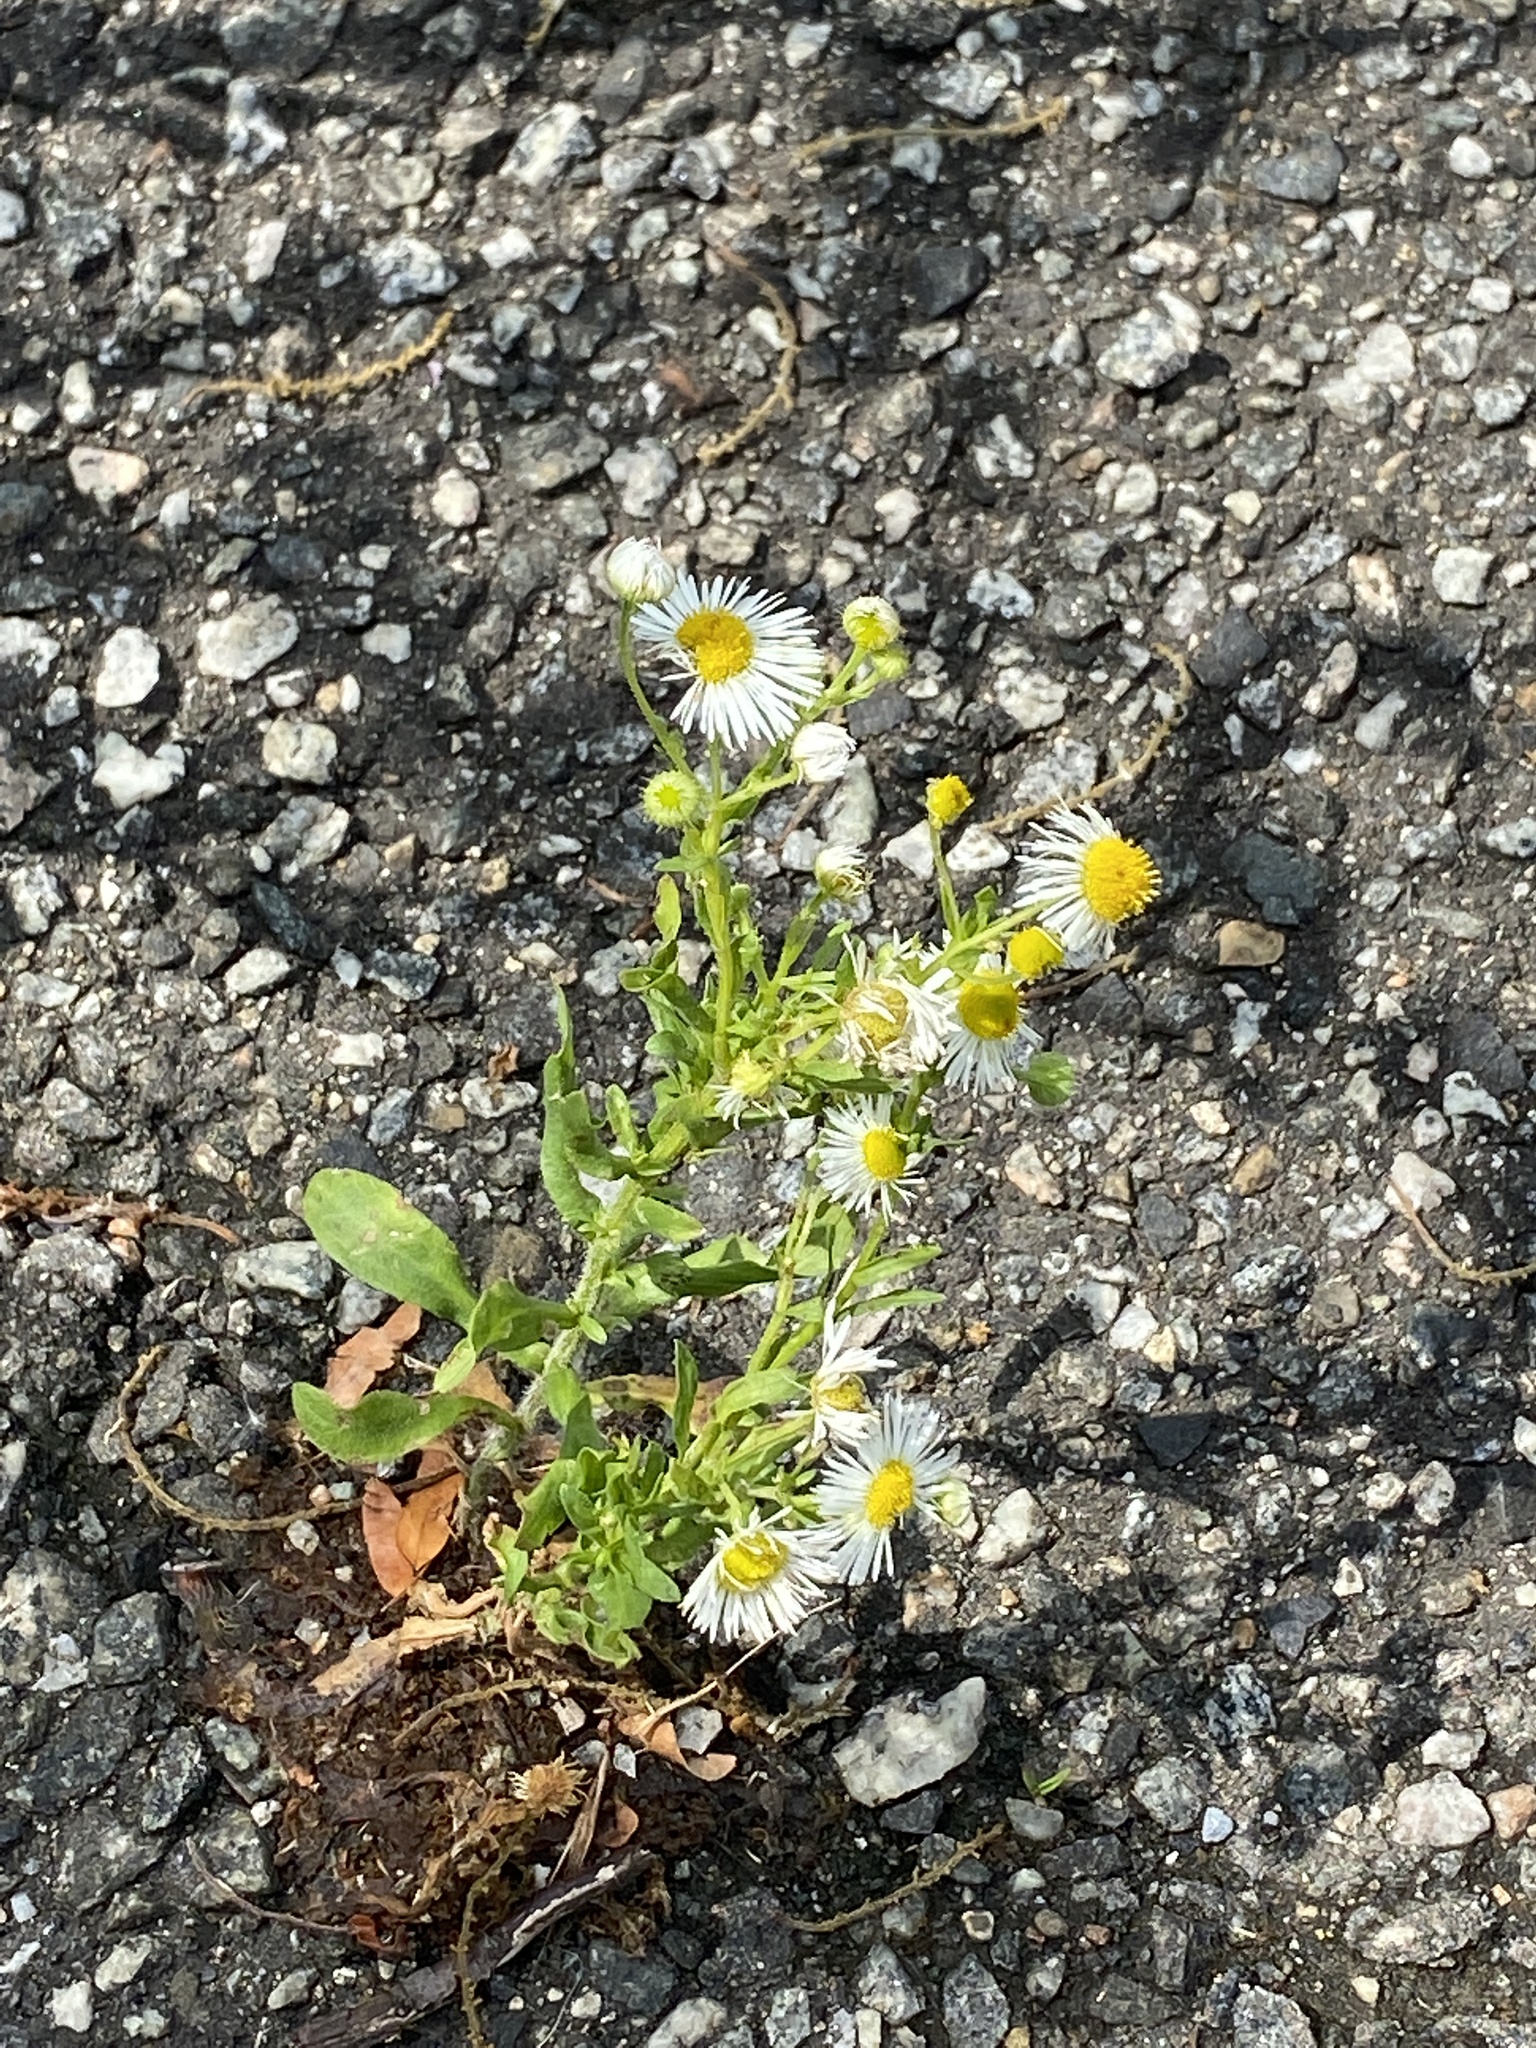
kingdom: Plantae
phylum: Tracheophyta
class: Magnoliopsida
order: Asterales
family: Asteraceae
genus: Erigeron
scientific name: Erigeron annuus
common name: Tall fleabane
